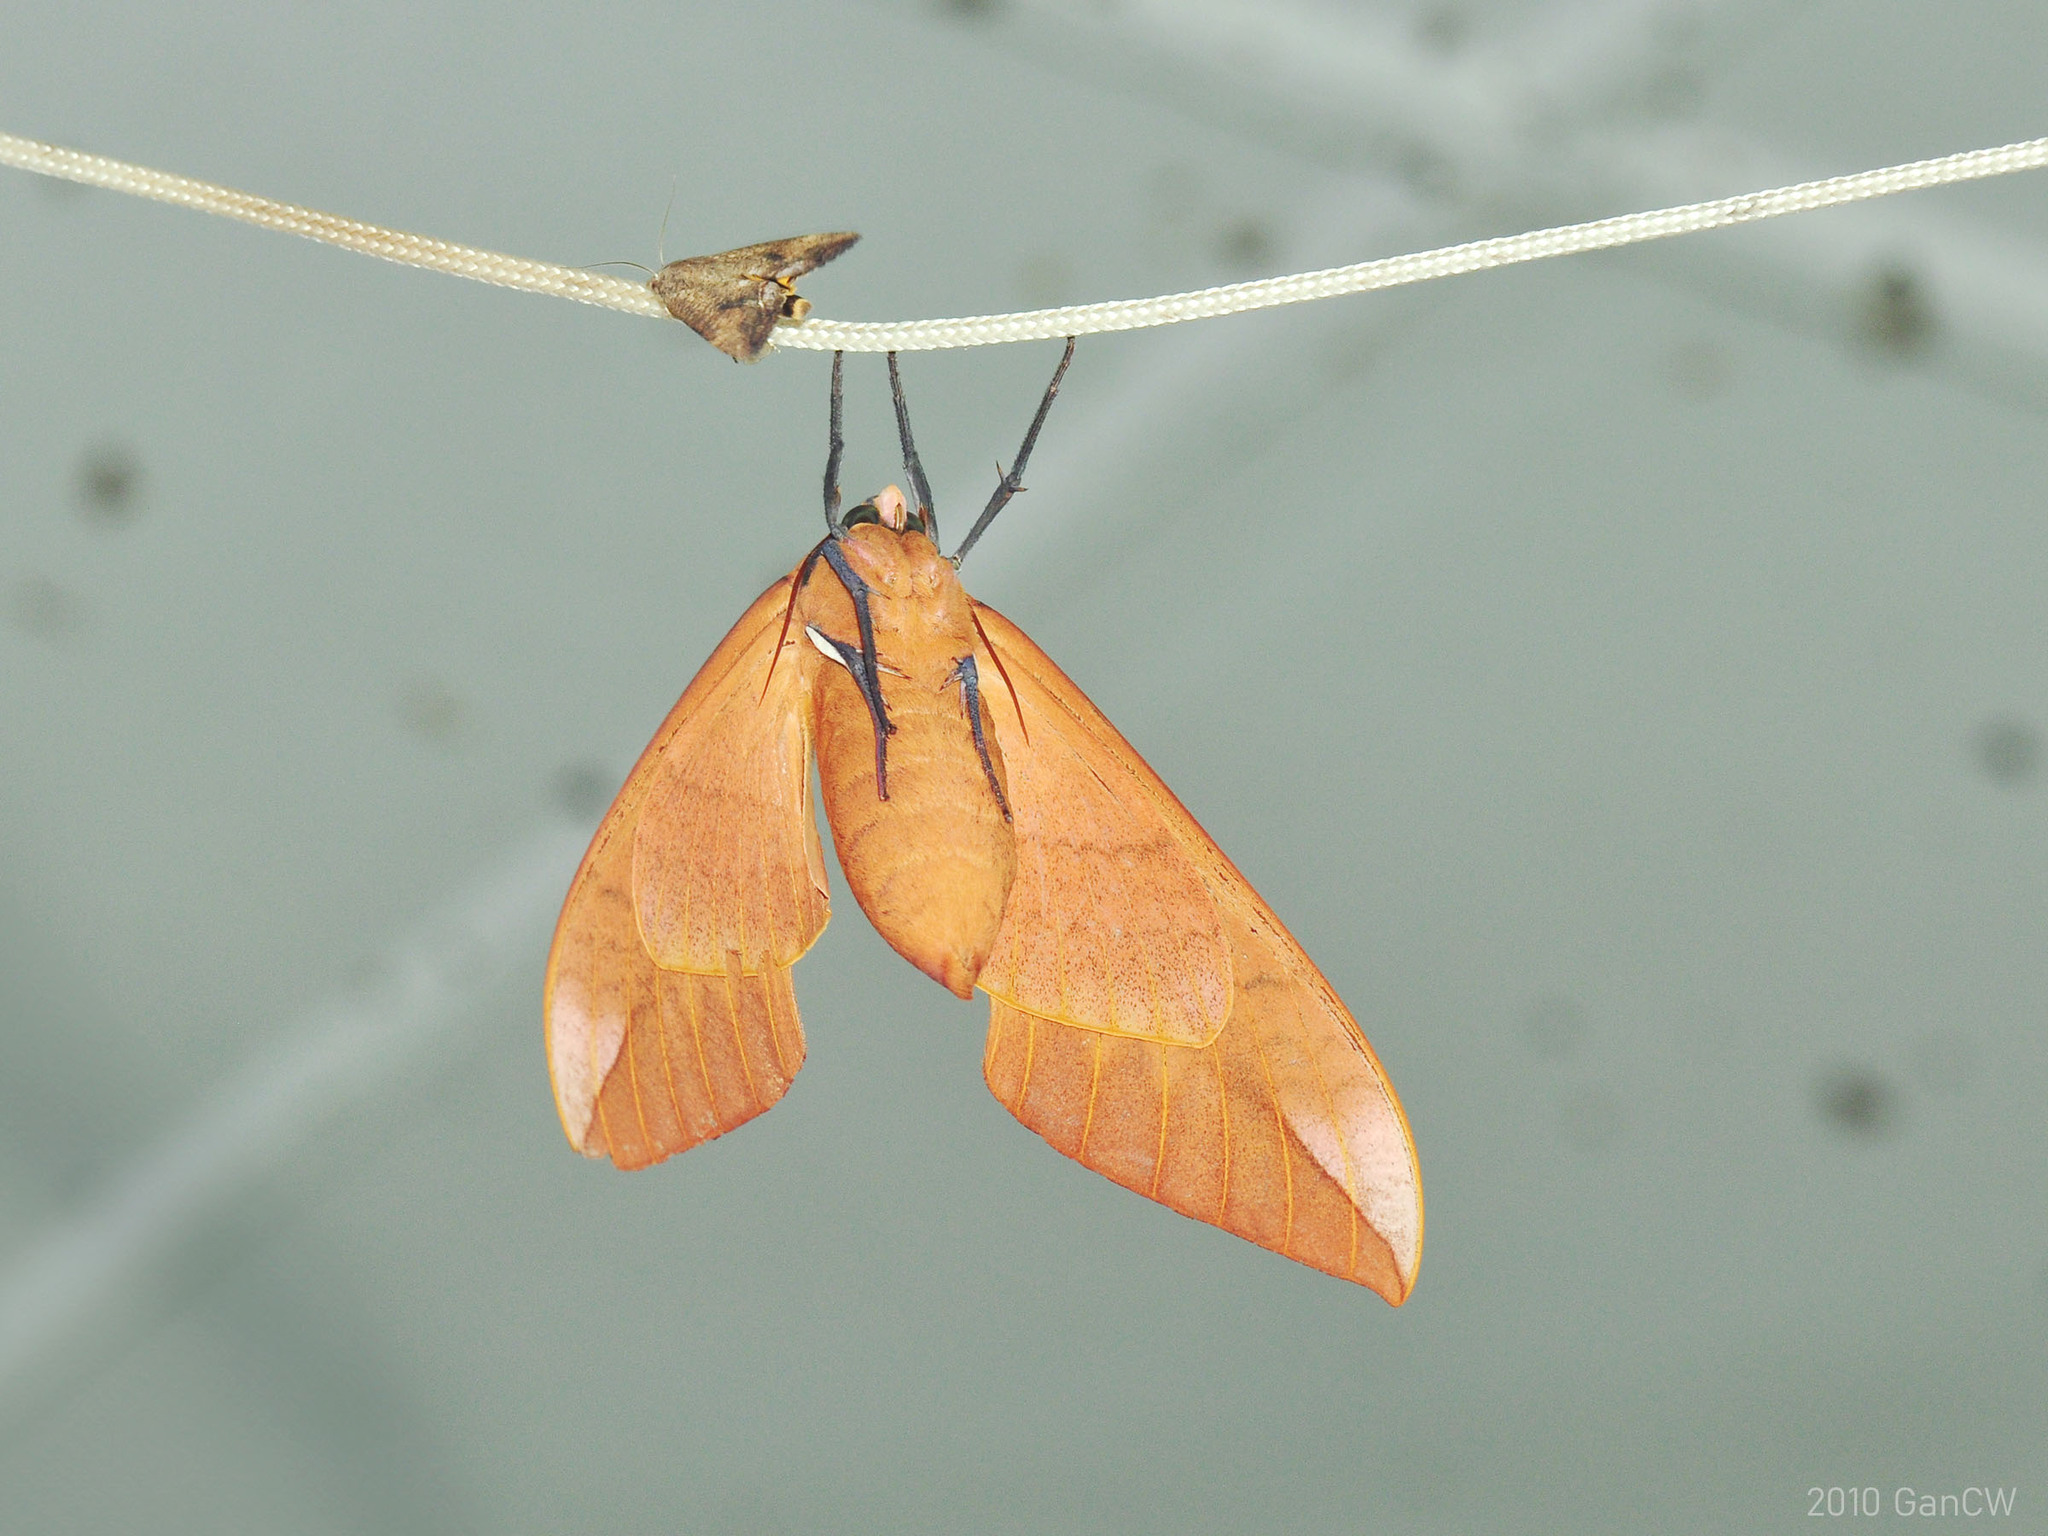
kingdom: Animalia
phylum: Arthropoda
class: Insecta
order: Lepidoptera
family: Sphingidae
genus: Clanis
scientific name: Clanis undulosa
